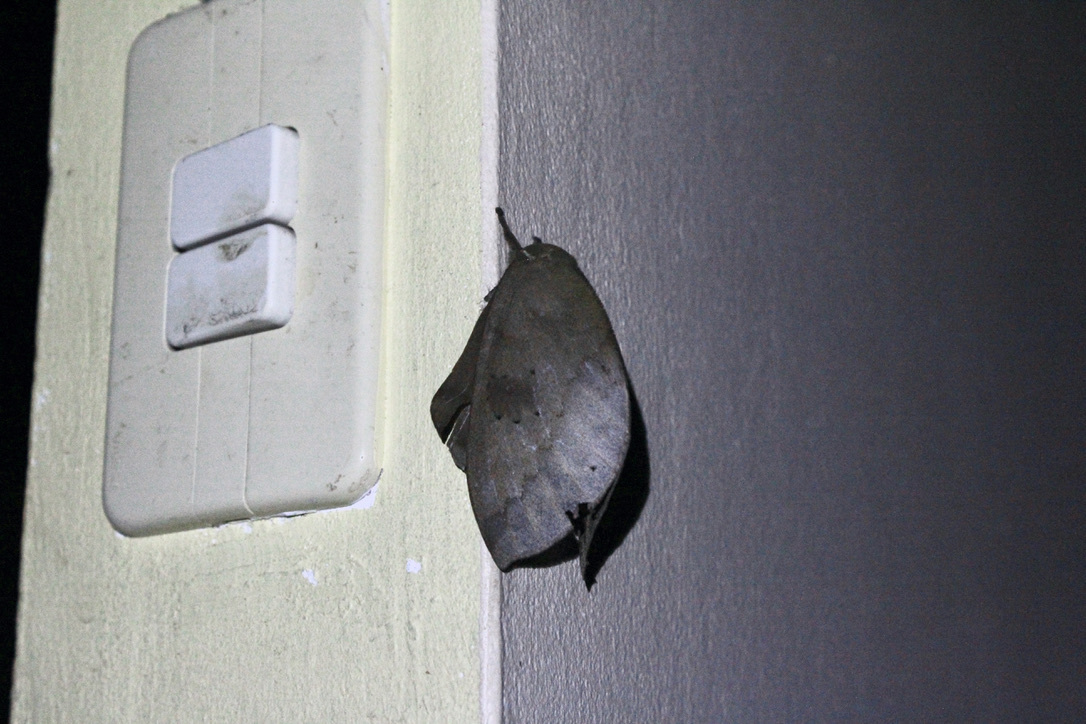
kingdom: Animalia
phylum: Arthropoda
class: Insecta
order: Lepidoptera
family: Saturniidae
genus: Pseudautomeris
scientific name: Pseudautomeris lata
